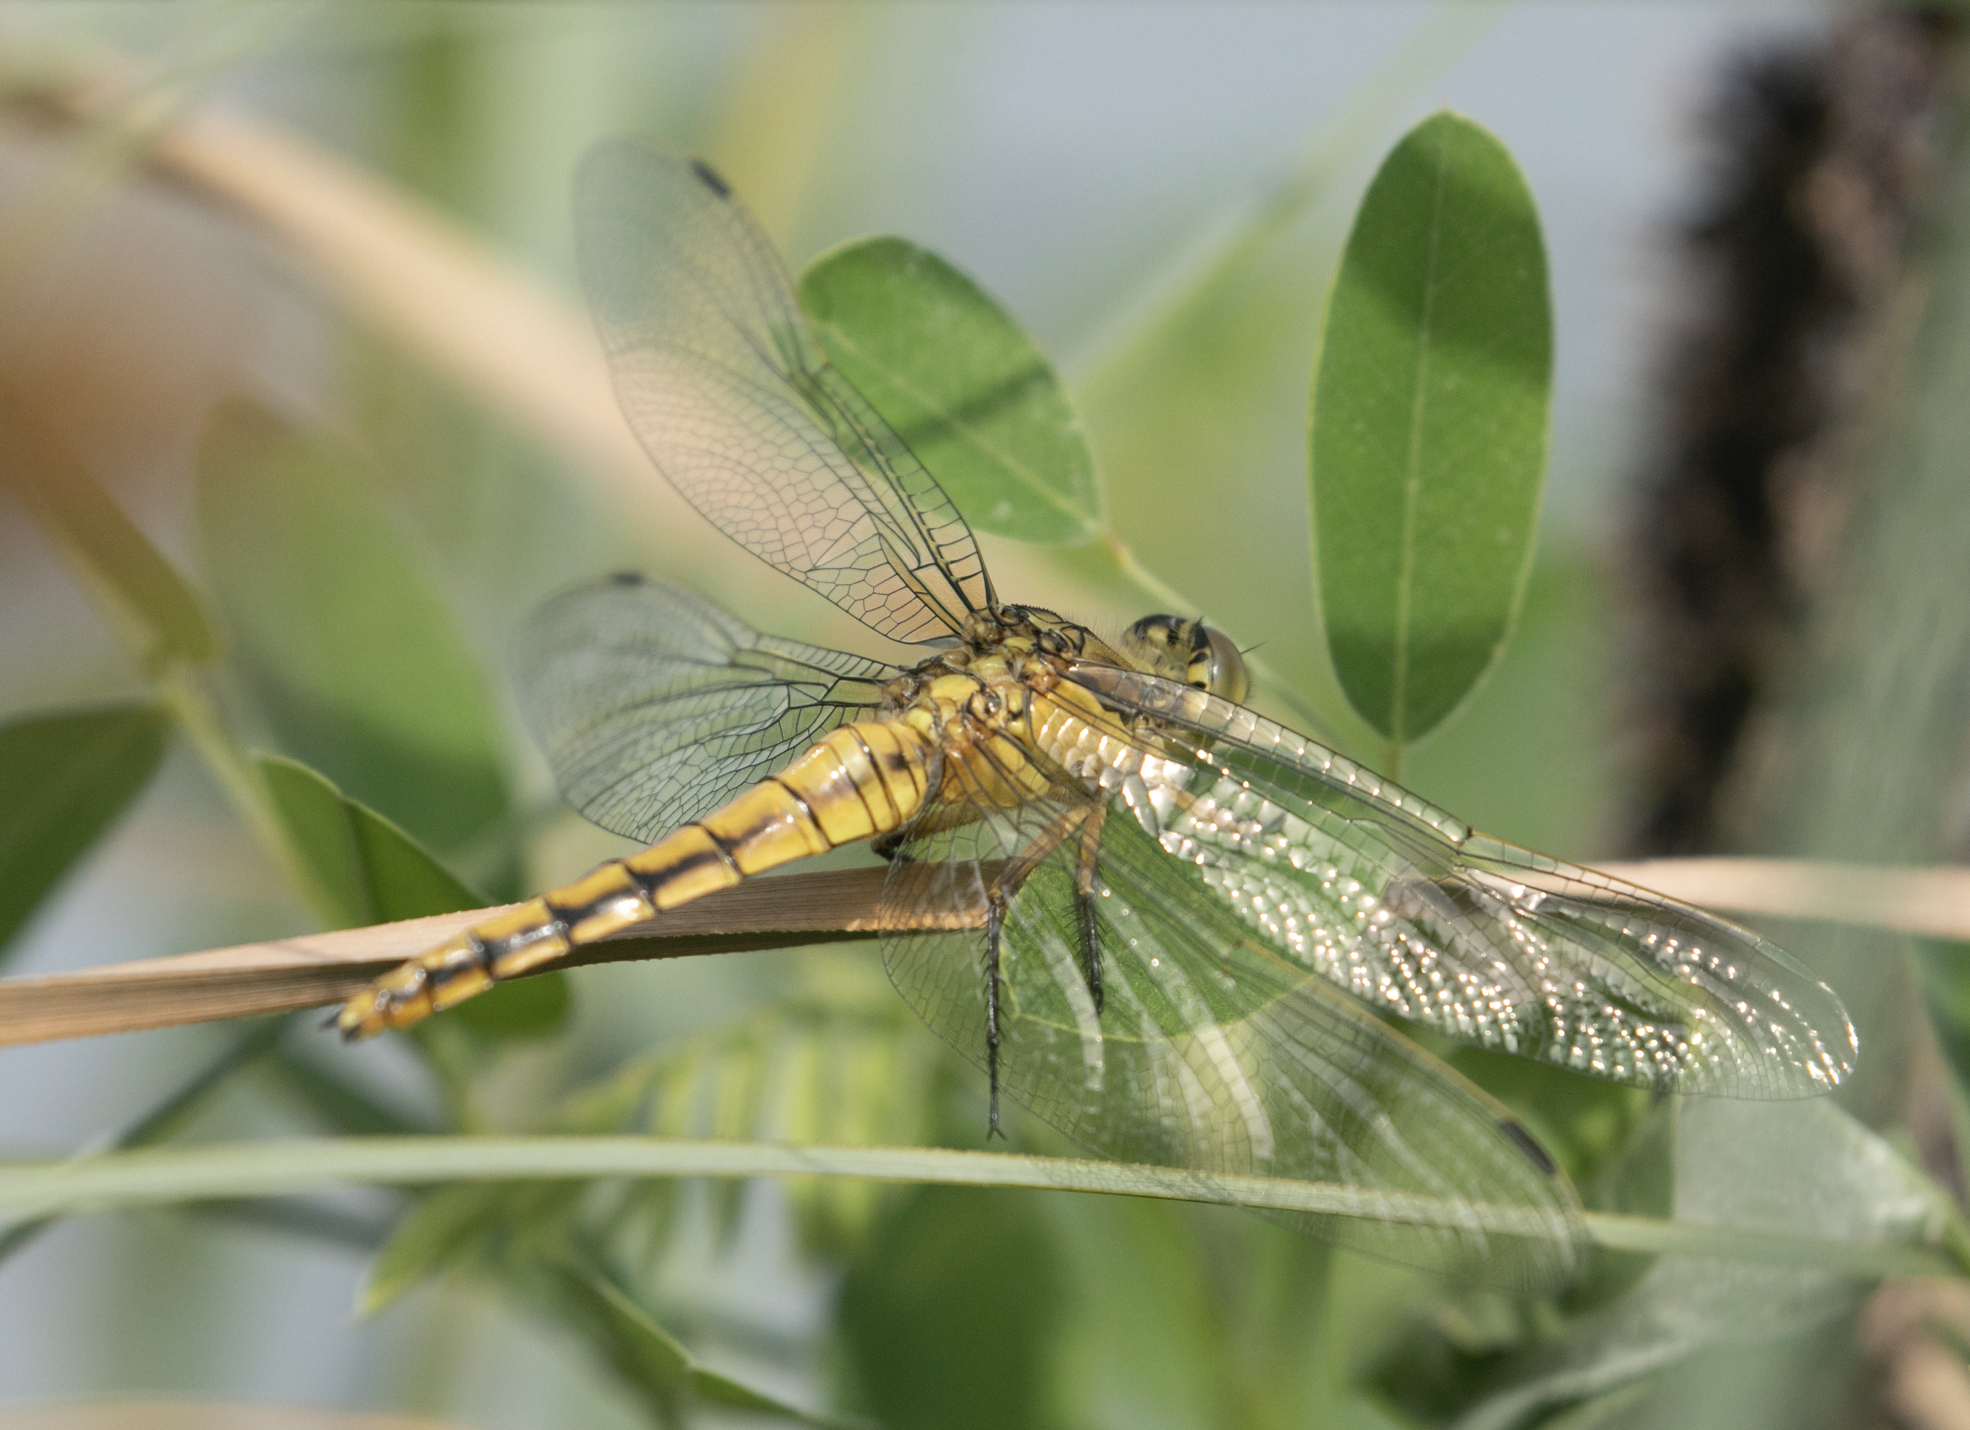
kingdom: Animalia
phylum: Arthropoda
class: Insecta
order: Odonata
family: Libellulidae
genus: Orthetrum
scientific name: Orthetrum cancellatum
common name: Black-tailed skimmer
